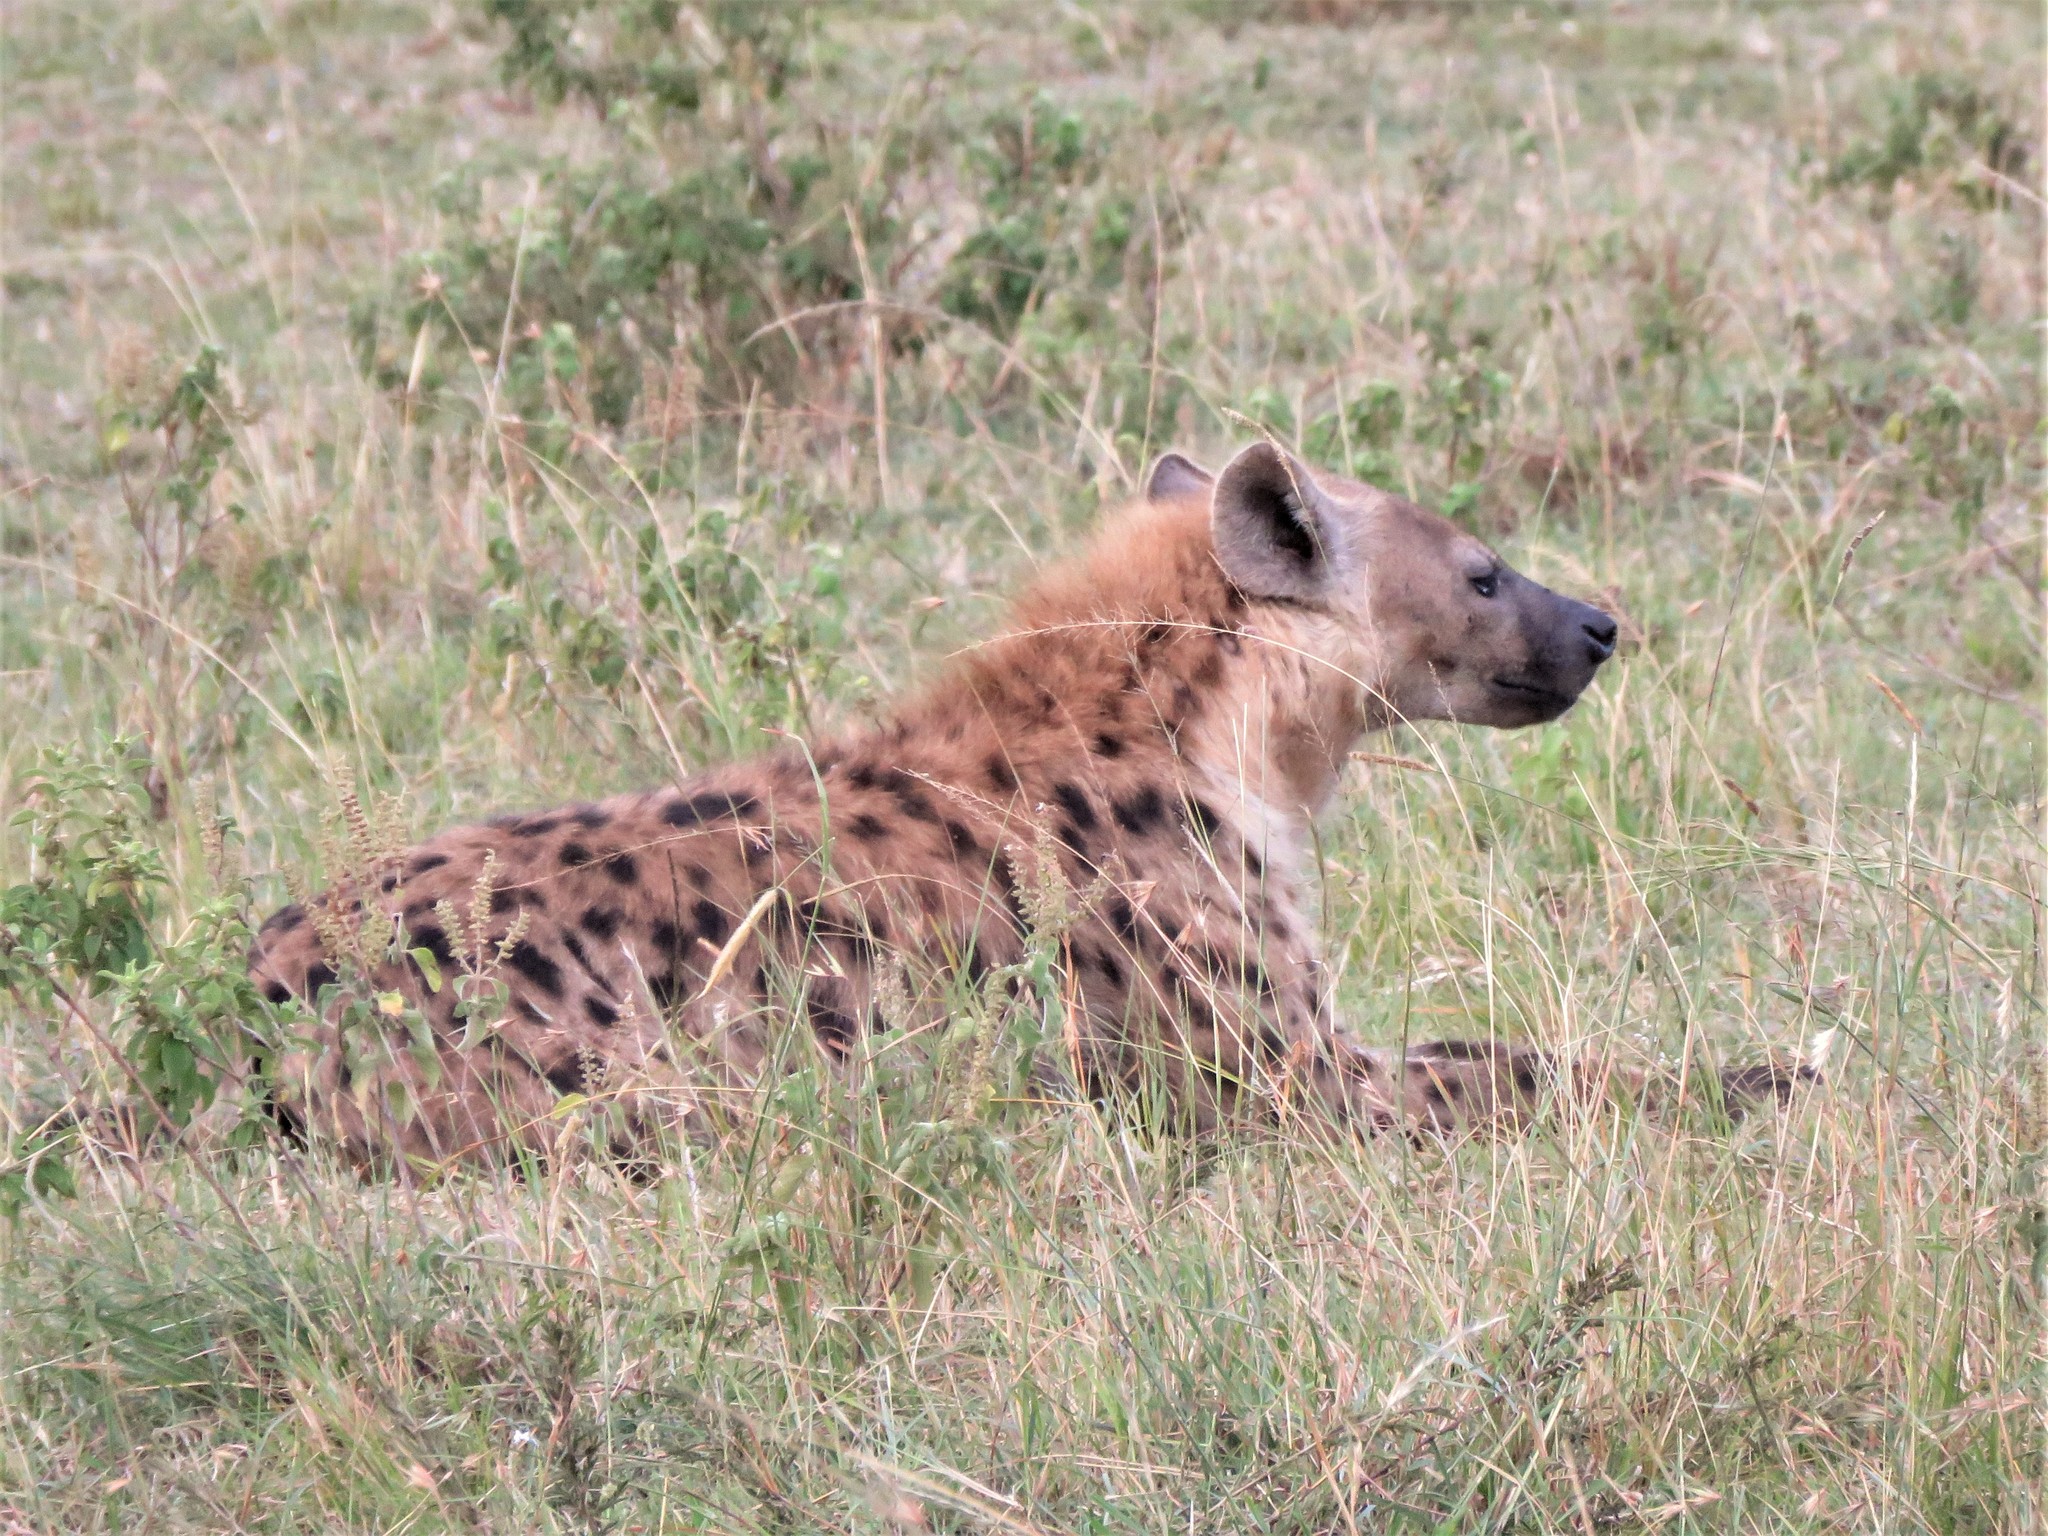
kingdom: Animalia
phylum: Chordata
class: Mammalia
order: Carnivora
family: Hyaenidae
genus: Crocuta
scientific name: Crocuta crocuta
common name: Spotted hyaena
